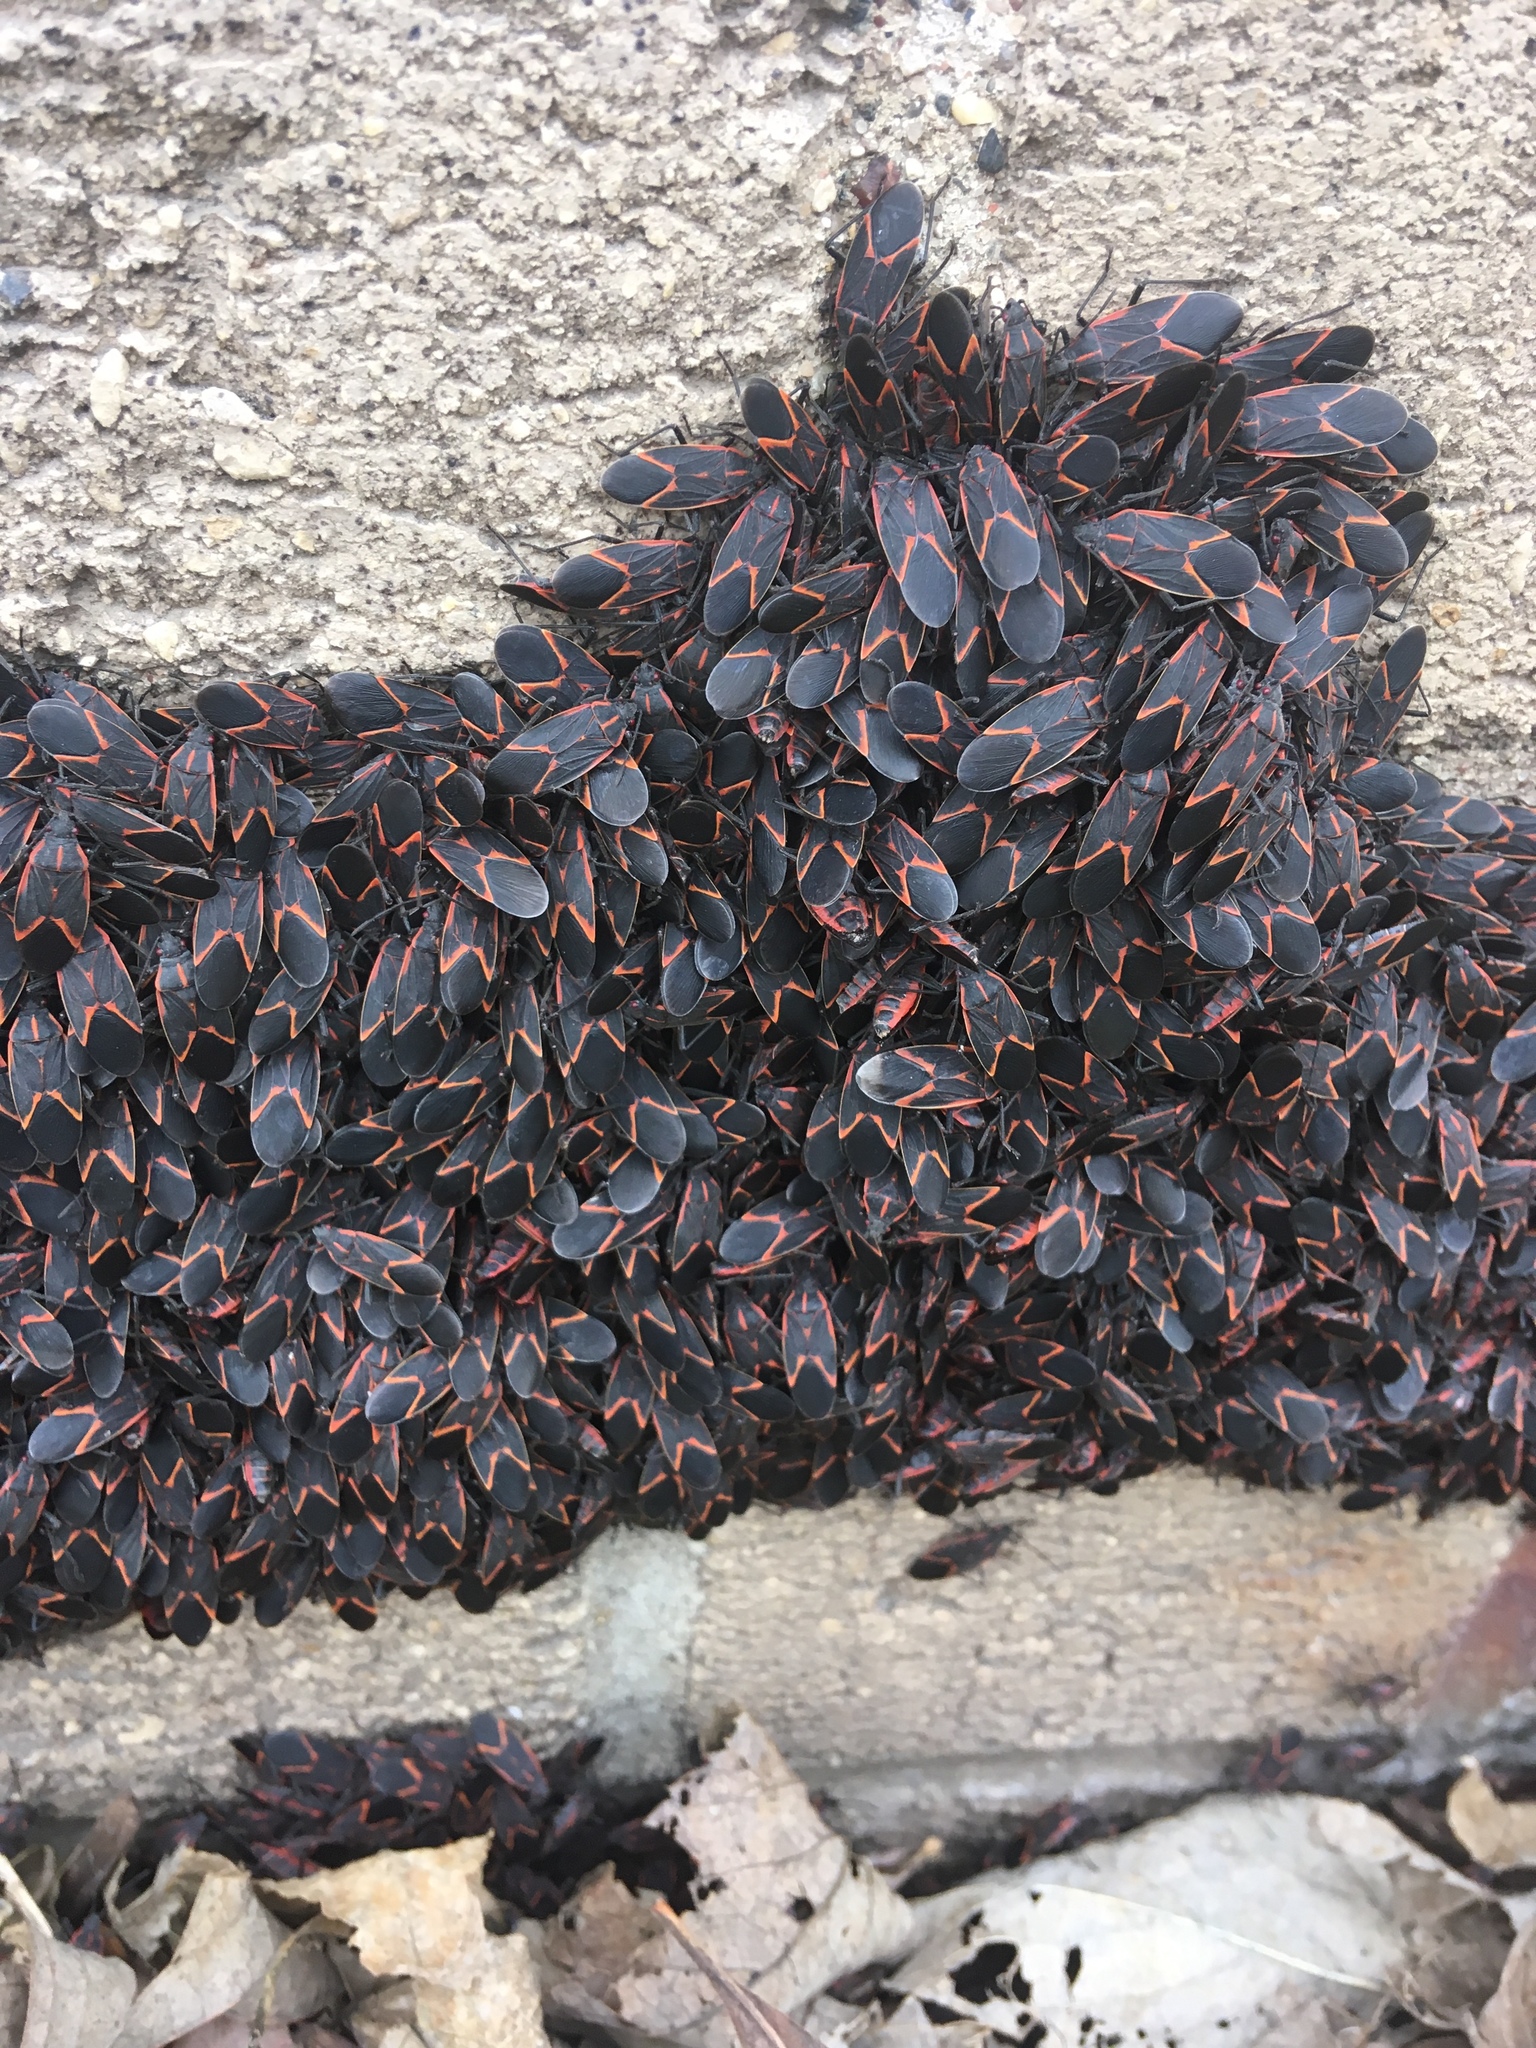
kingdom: Animalia
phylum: Arthropoda
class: Insecta
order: Hemiptera
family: Rhopalidae
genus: Boisea
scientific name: Boisea trivittata
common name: Boxelder bug
